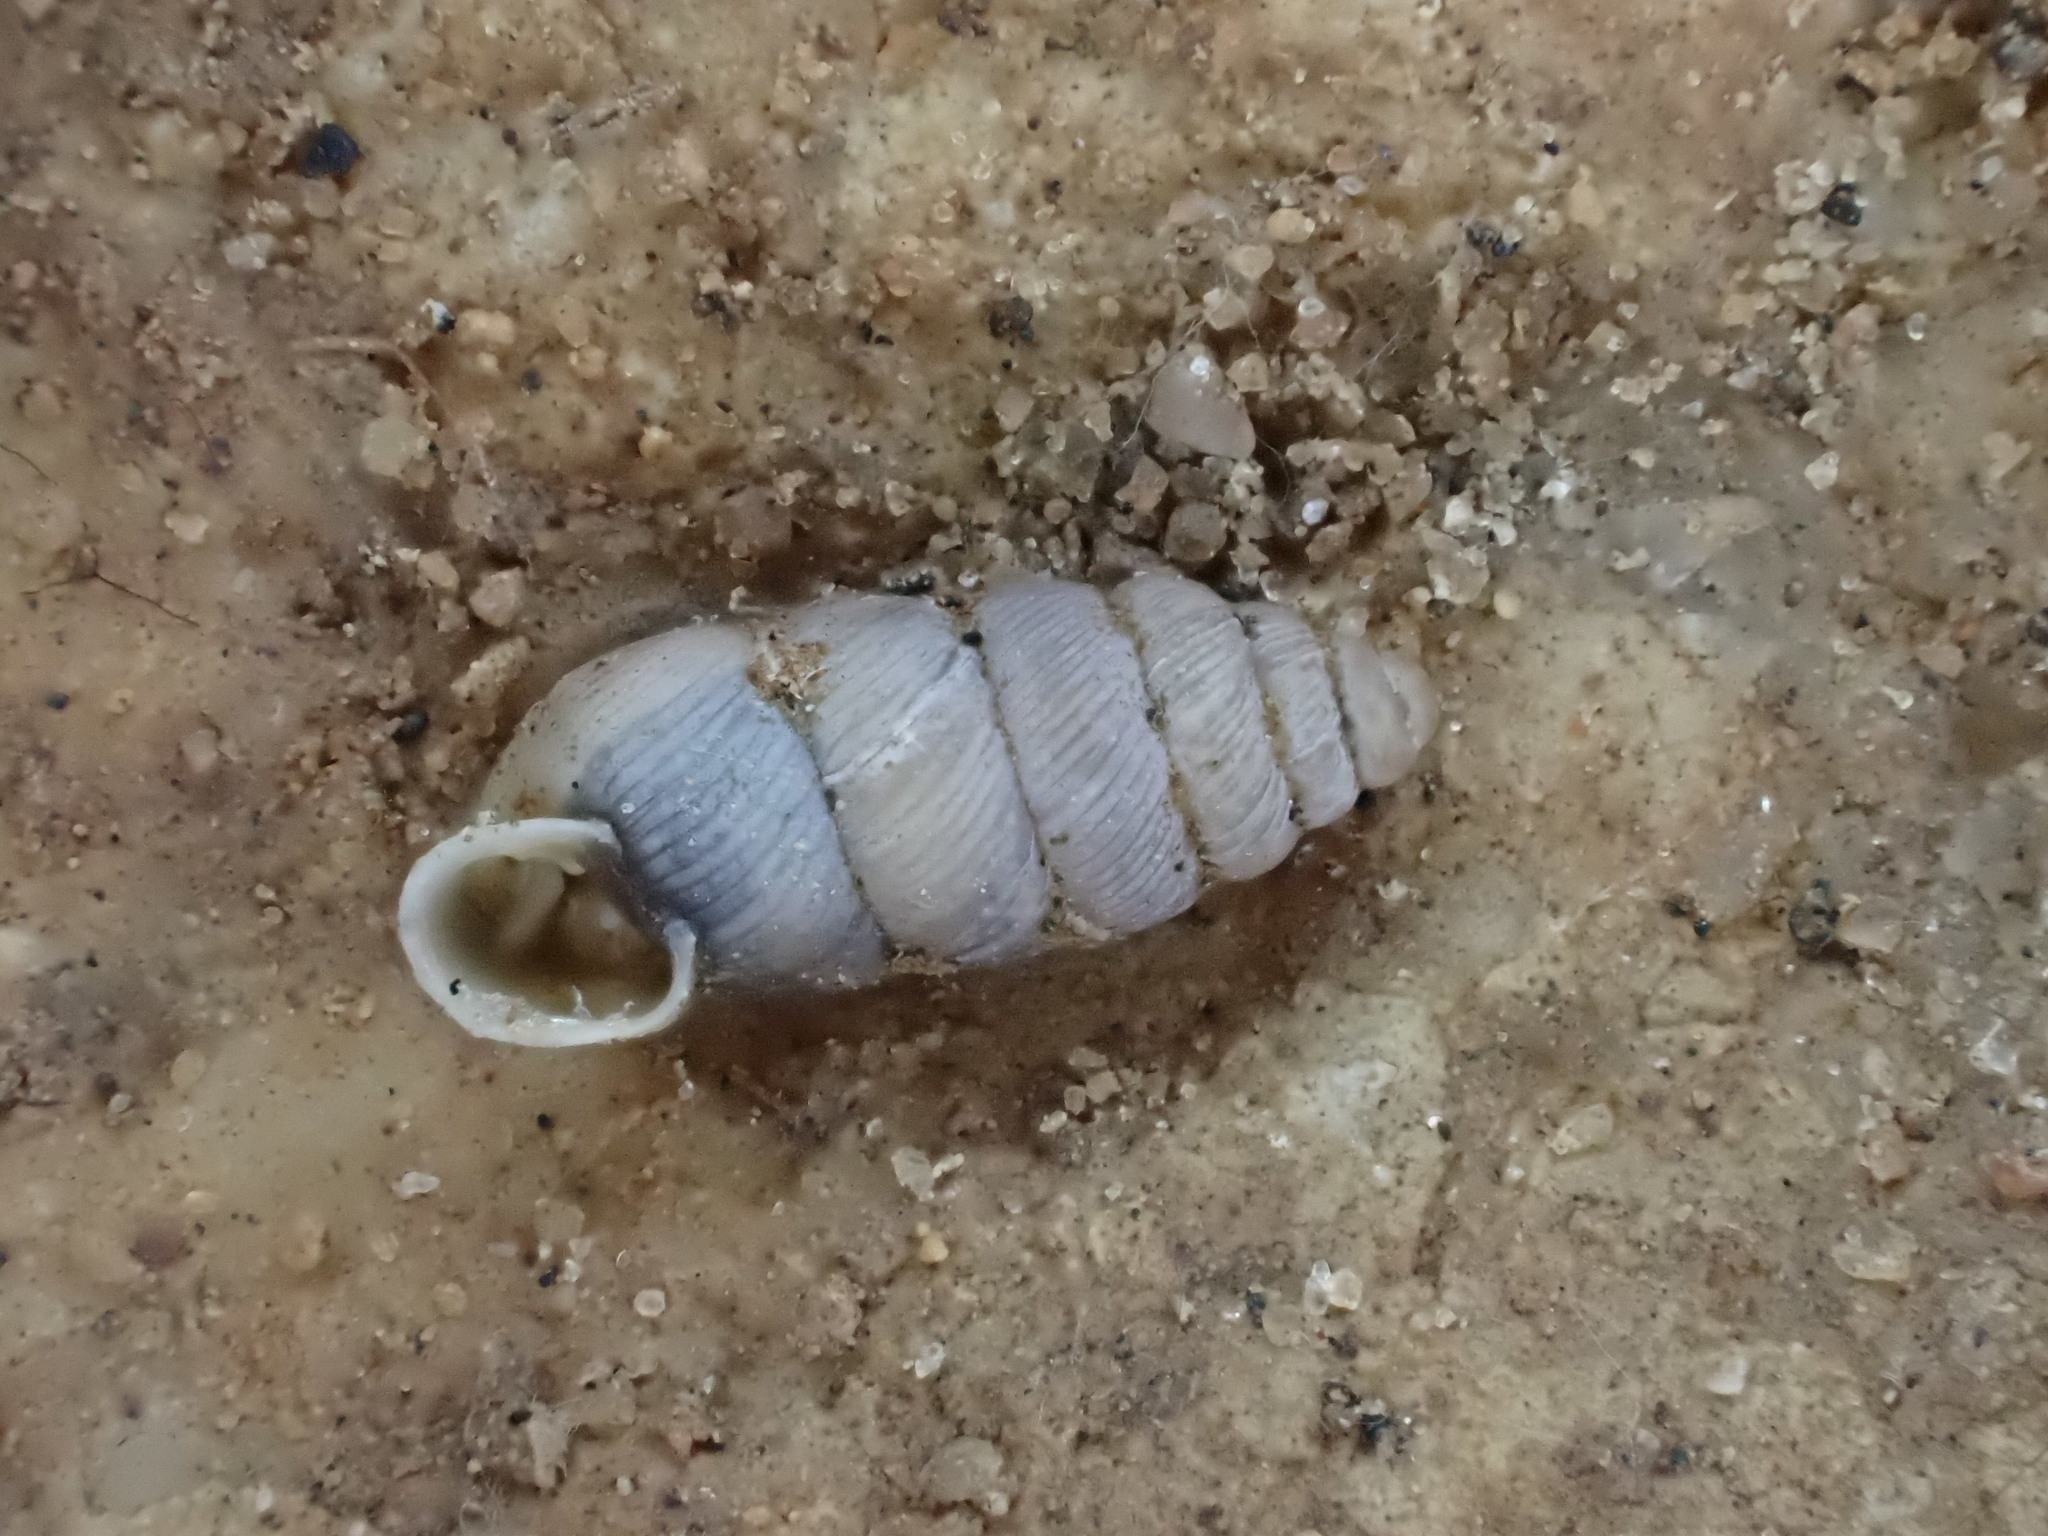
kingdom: Animalia
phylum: Mollusca
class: Gastropoda
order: Stylommatophora
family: Chondrinidae
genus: Granopupa
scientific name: Granopupa granum
